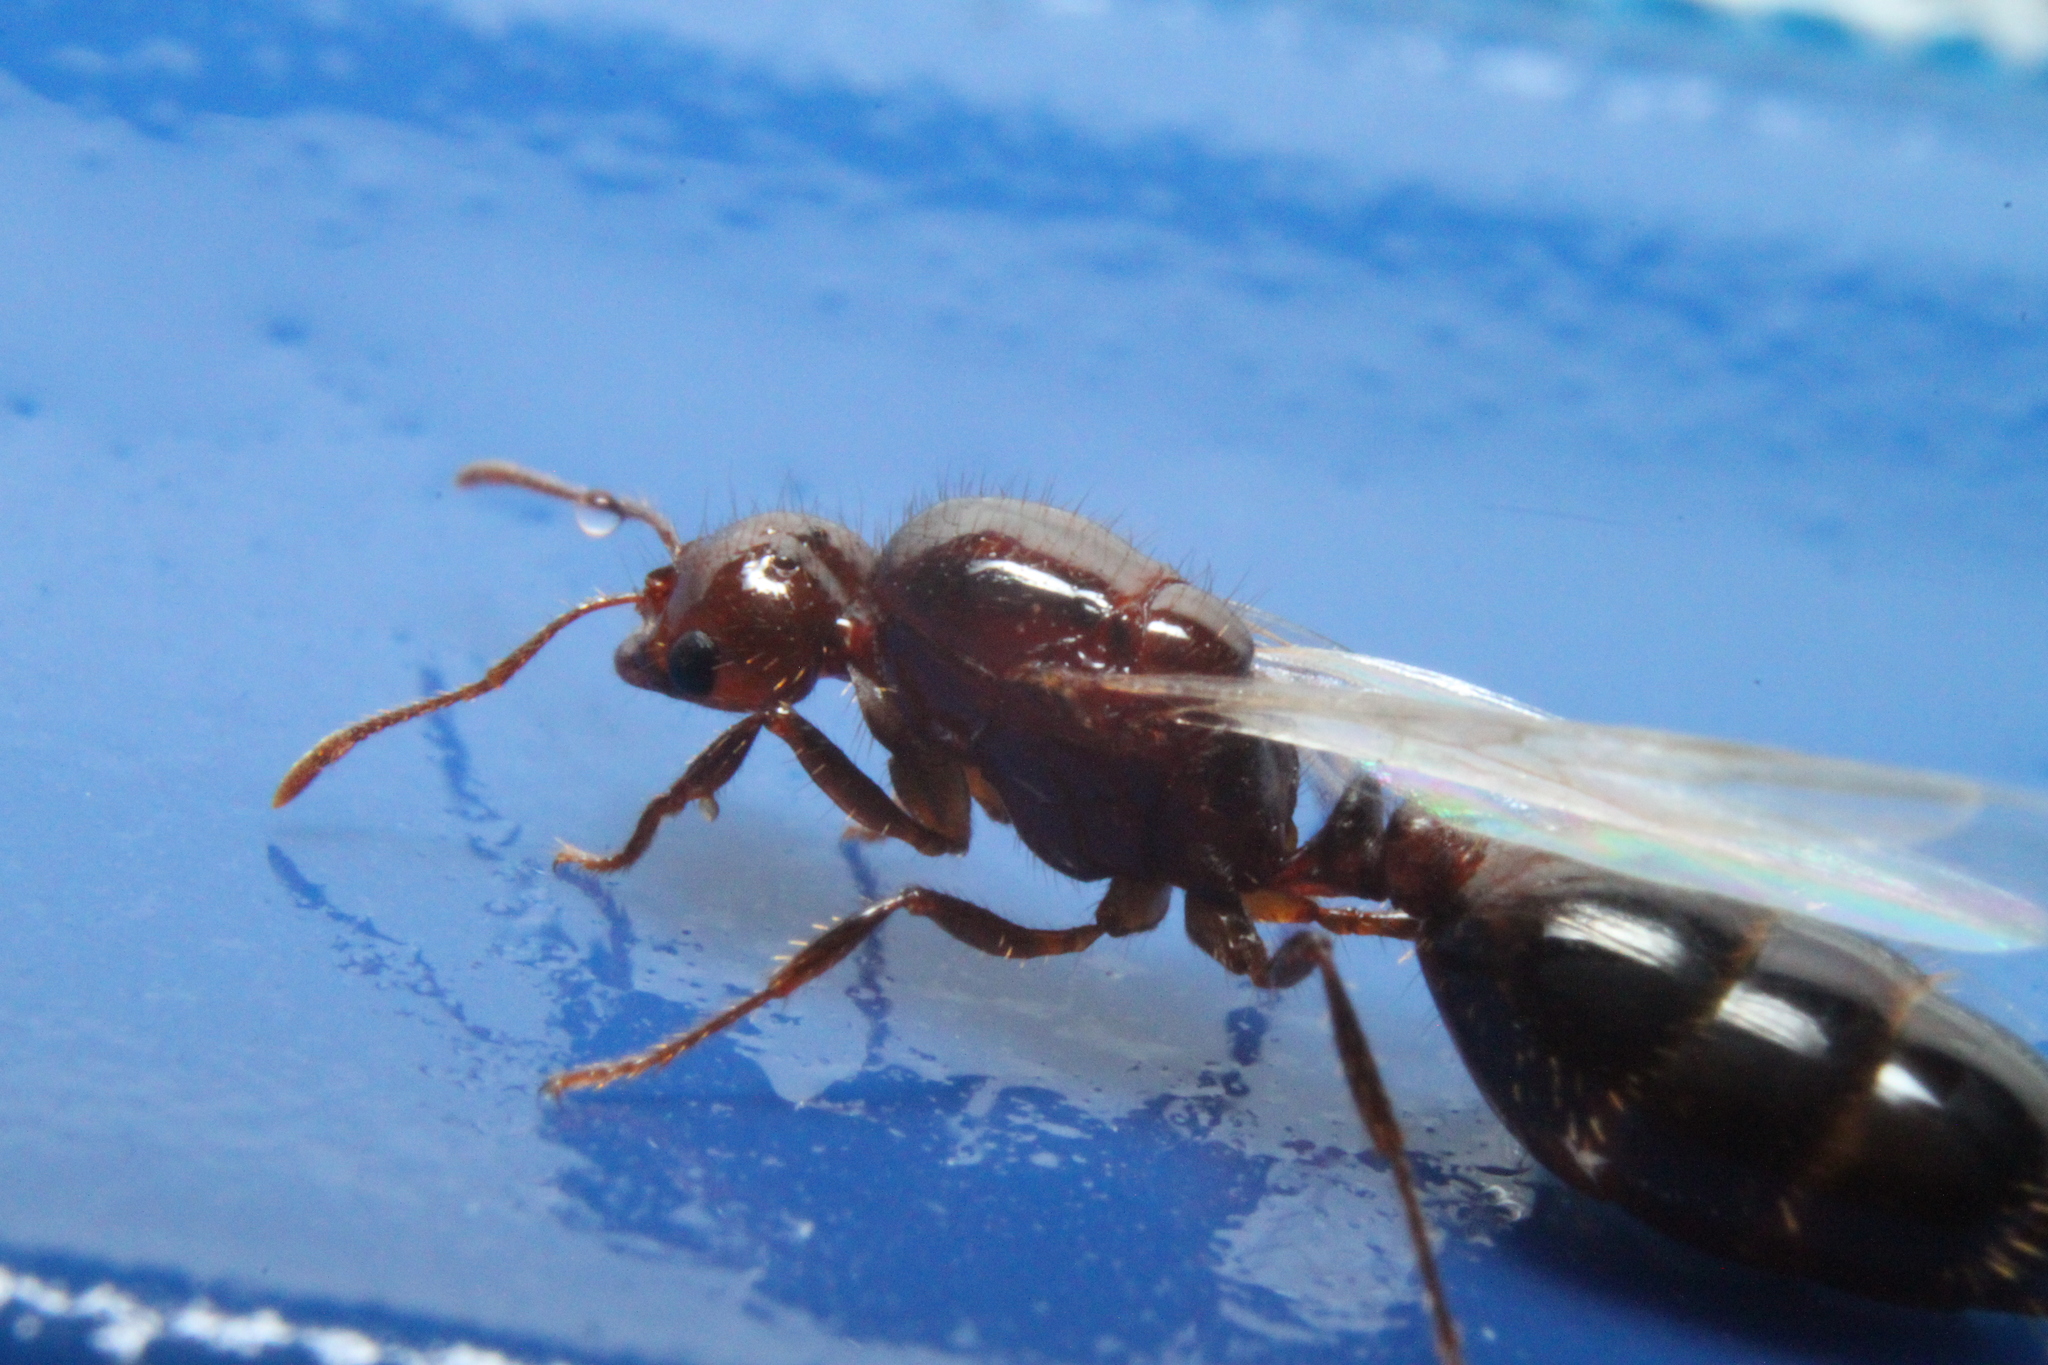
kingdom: Animalia
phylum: Arthropoda
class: Insecta
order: Hymenoptera
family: Formicidae
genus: Solenopsis
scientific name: Solenopsis invicta
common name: Red imported fire ant
